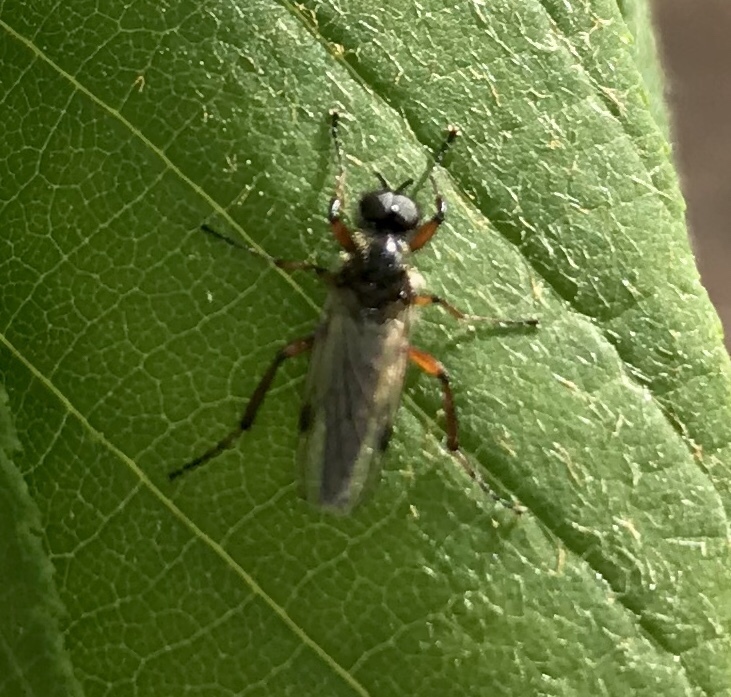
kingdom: Animalia
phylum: Arthropoda
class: Insecta
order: Diptera
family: Bibionidae
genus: Bibio
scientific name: Bibio
